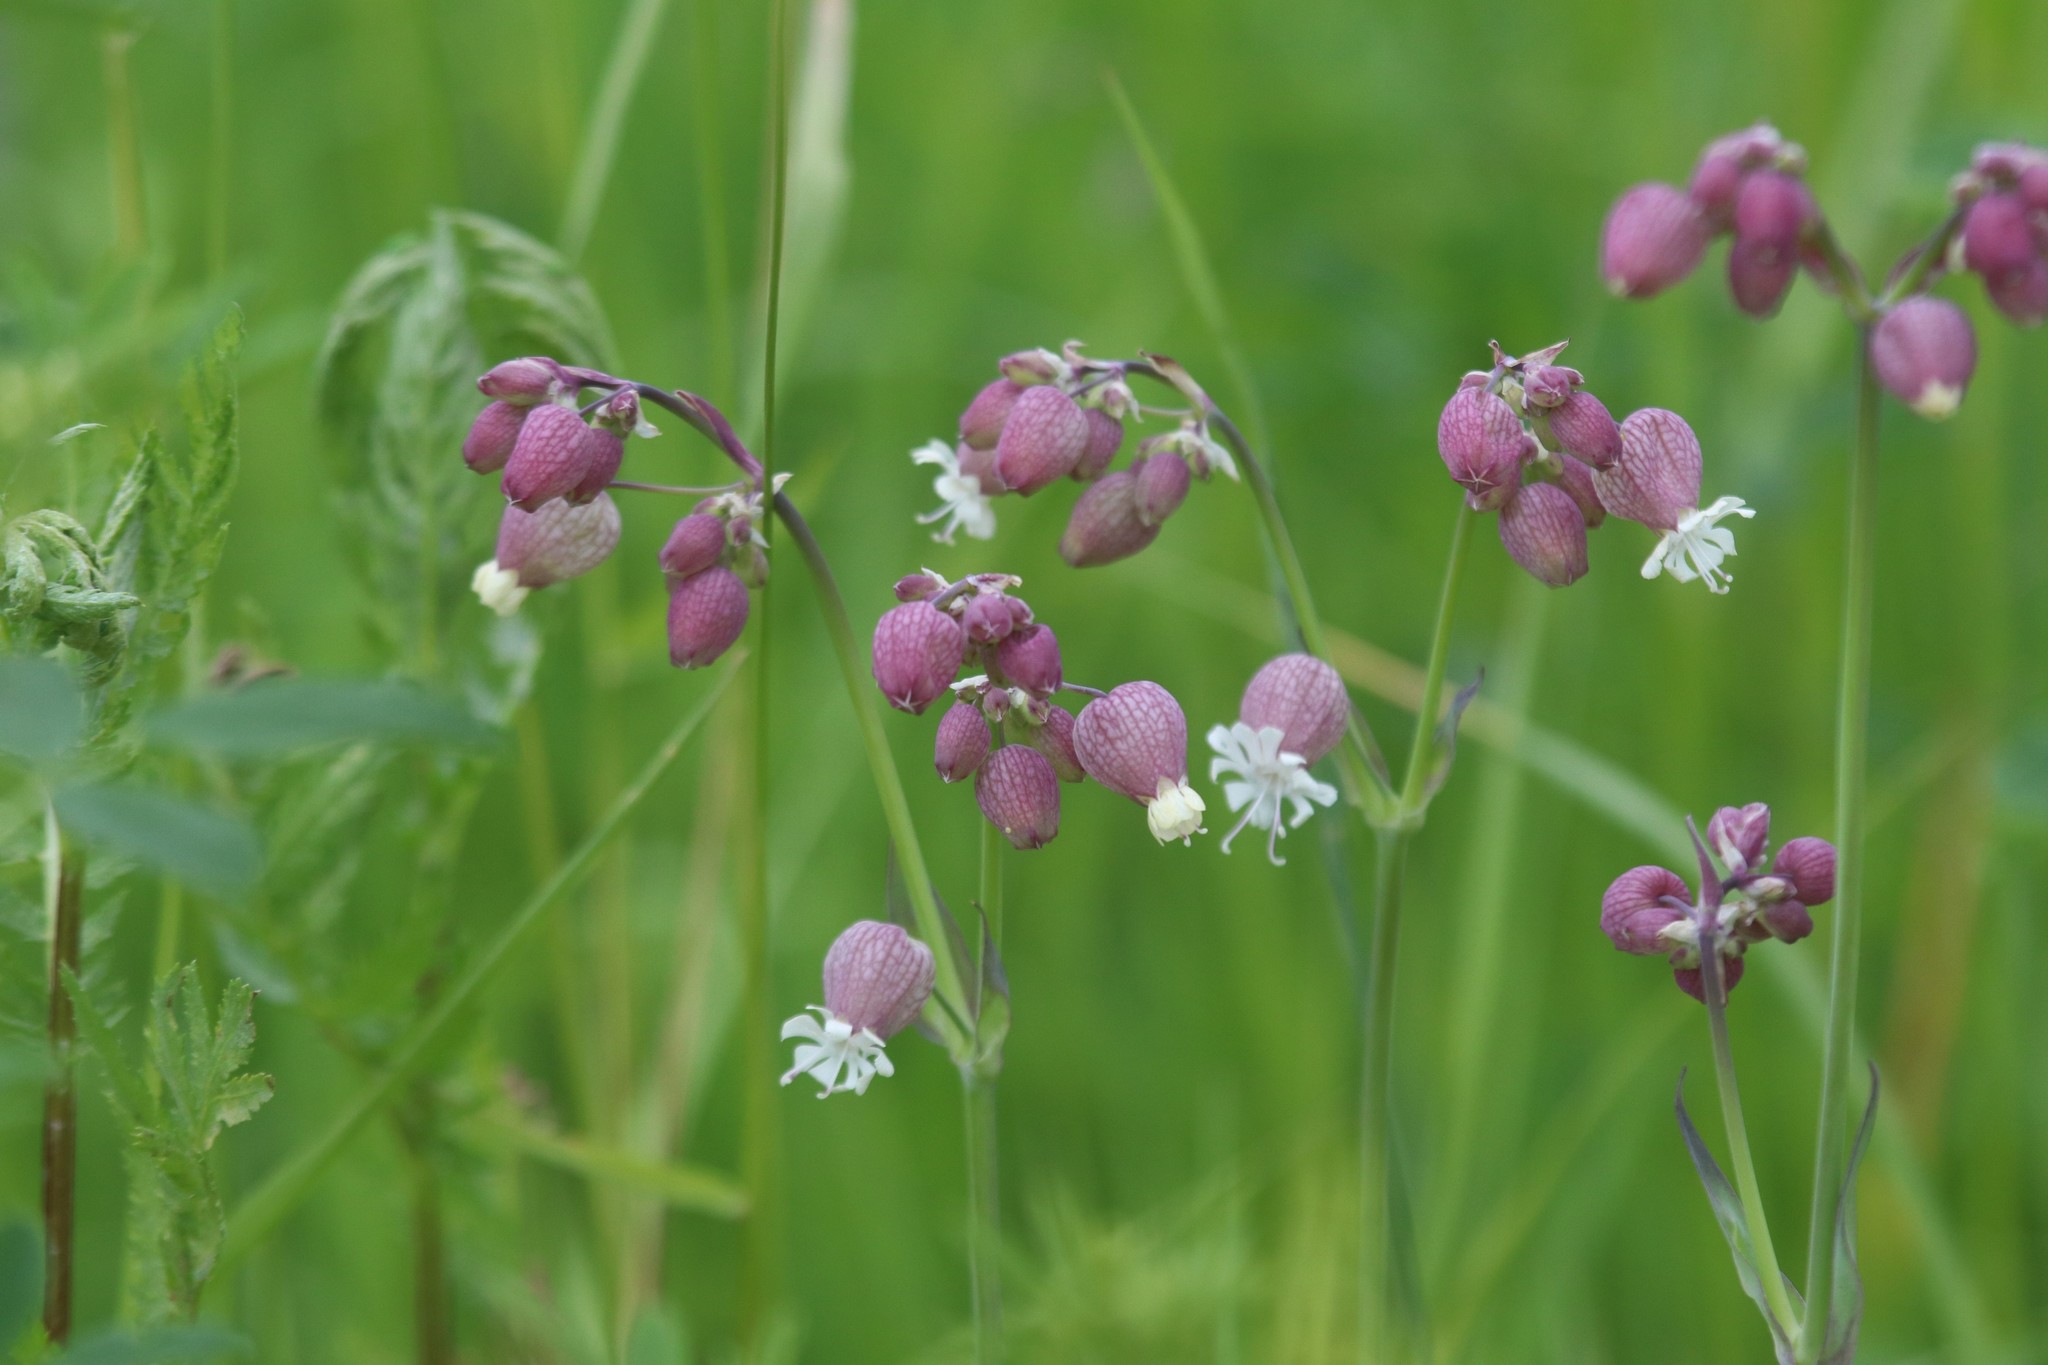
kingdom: Plantae
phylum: Tracheophyta
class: Magnoliopsida
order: Caryophyllales
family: Caryophyllaceae
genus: Silene
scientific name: Silene vulgaris
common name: Bladder campion
